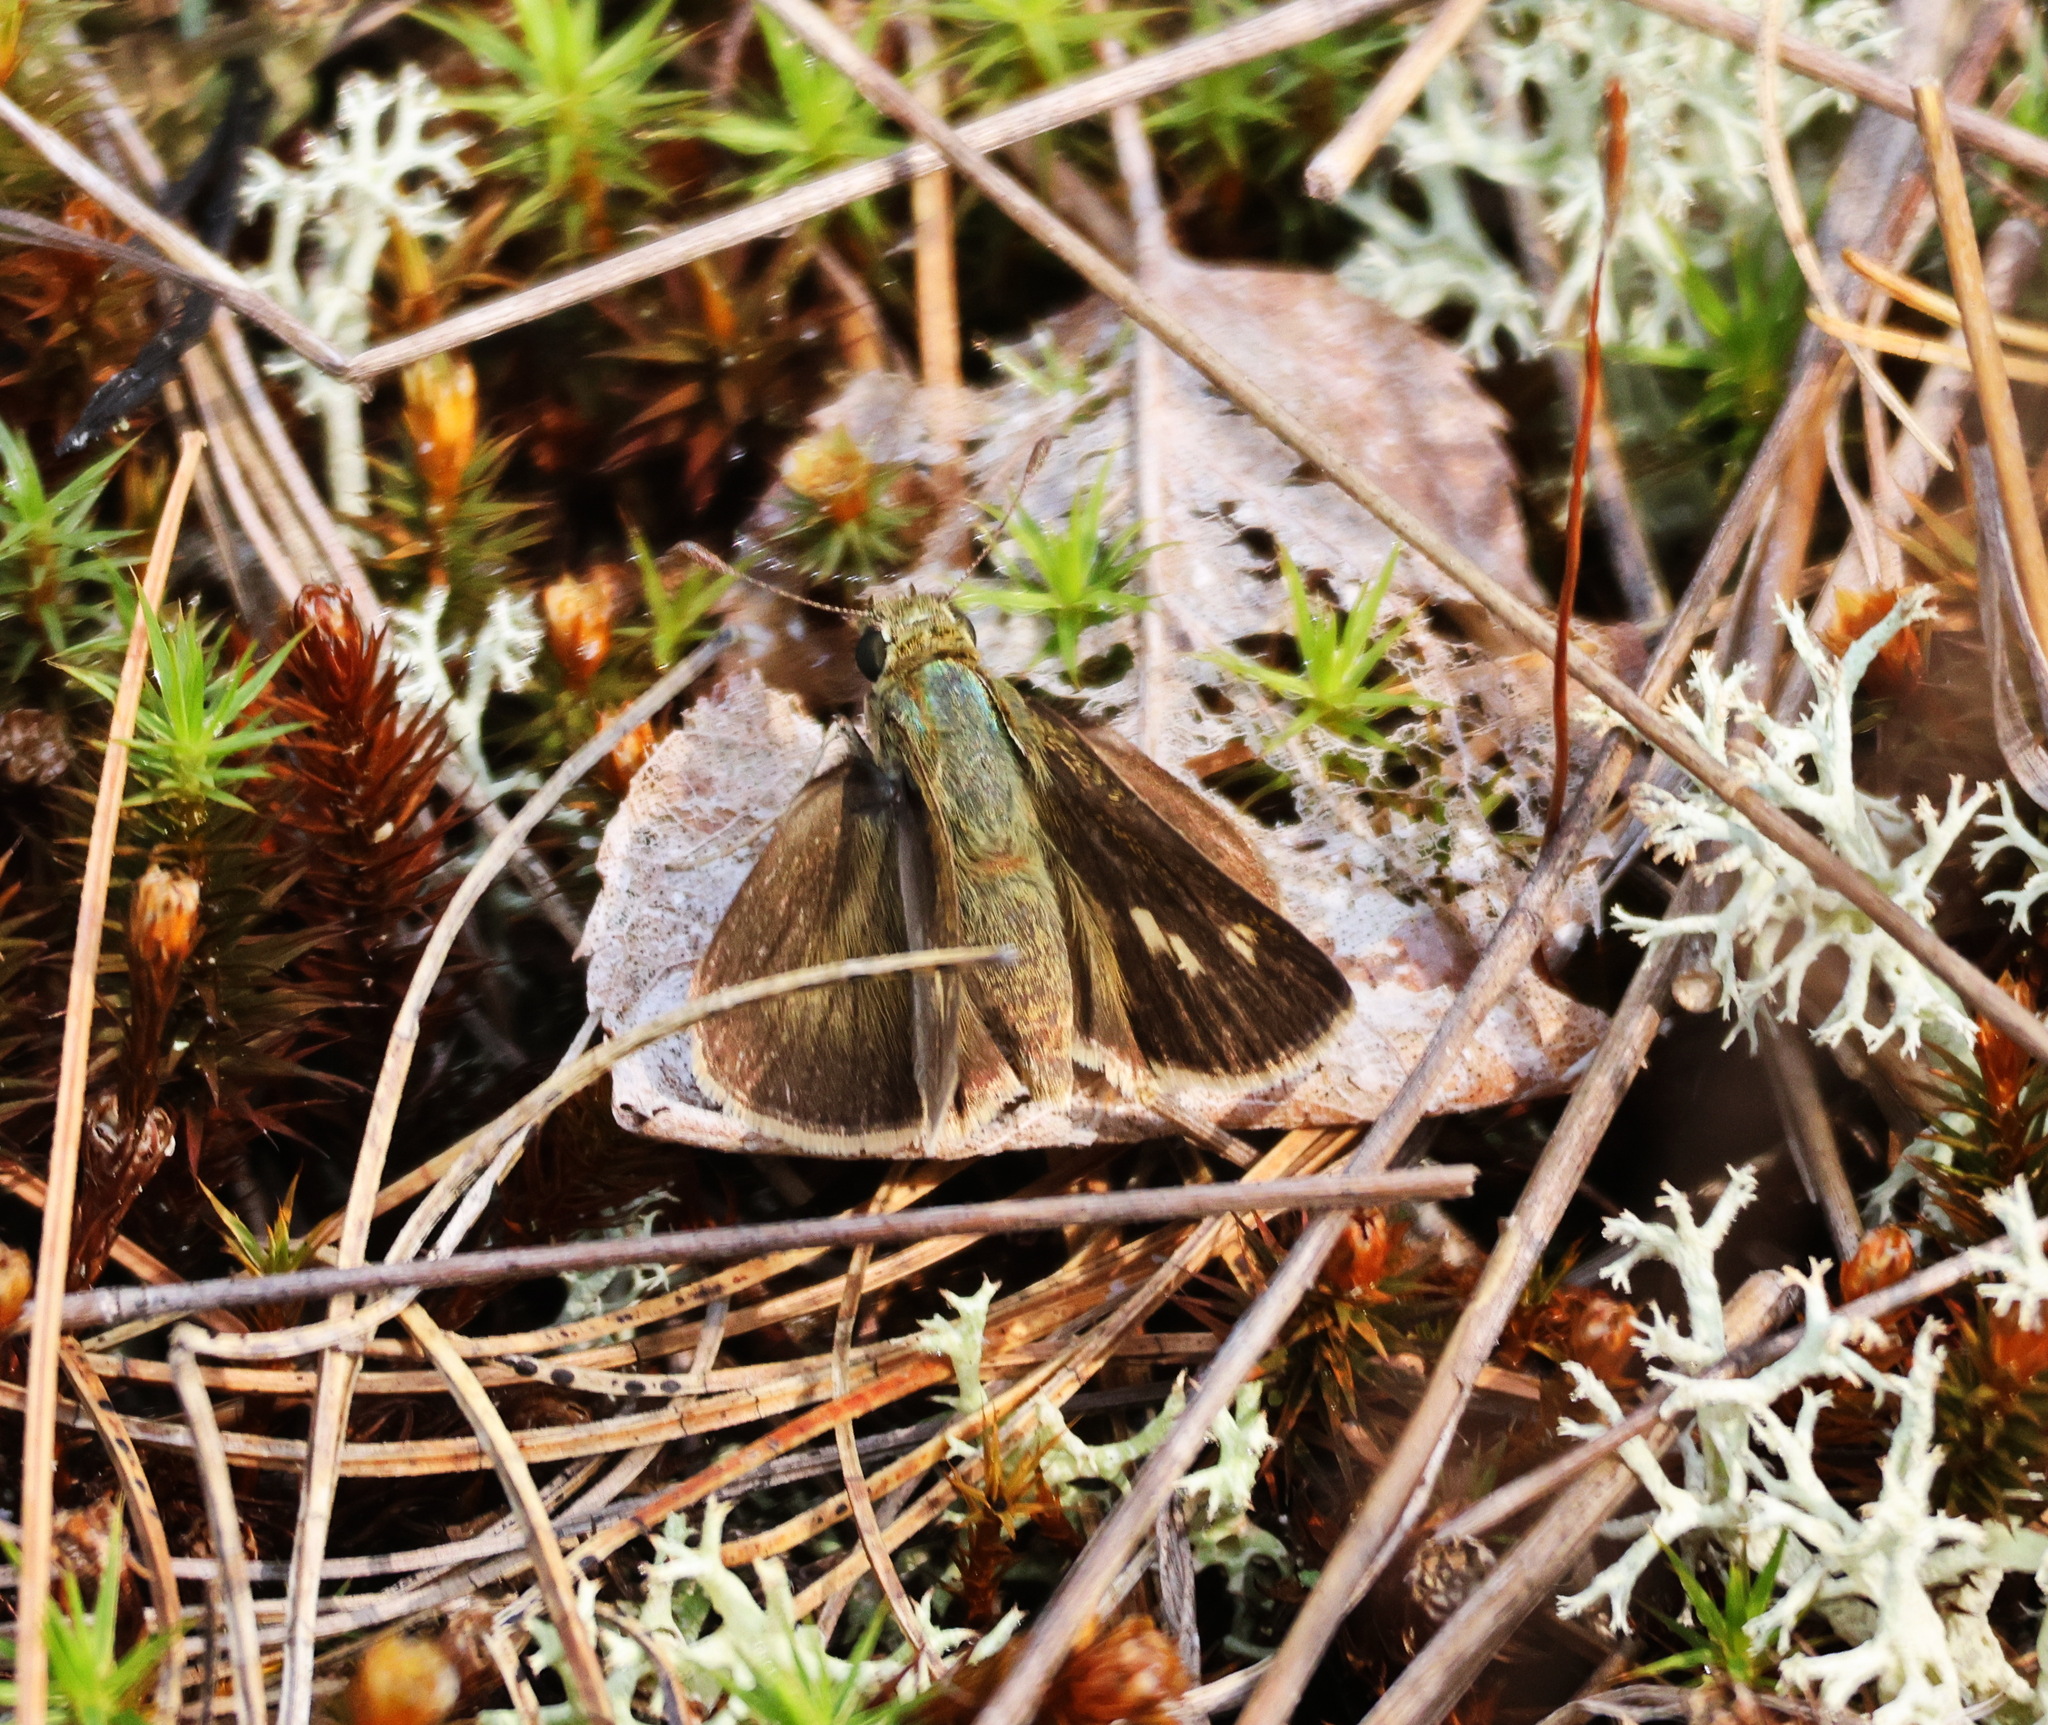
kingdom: Animalia
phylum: Arthropoda
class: Insecta
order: Lepidoptera
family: Hesperiidae
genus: Polites
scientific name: Polites egeremet
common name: Northern broken-dash
